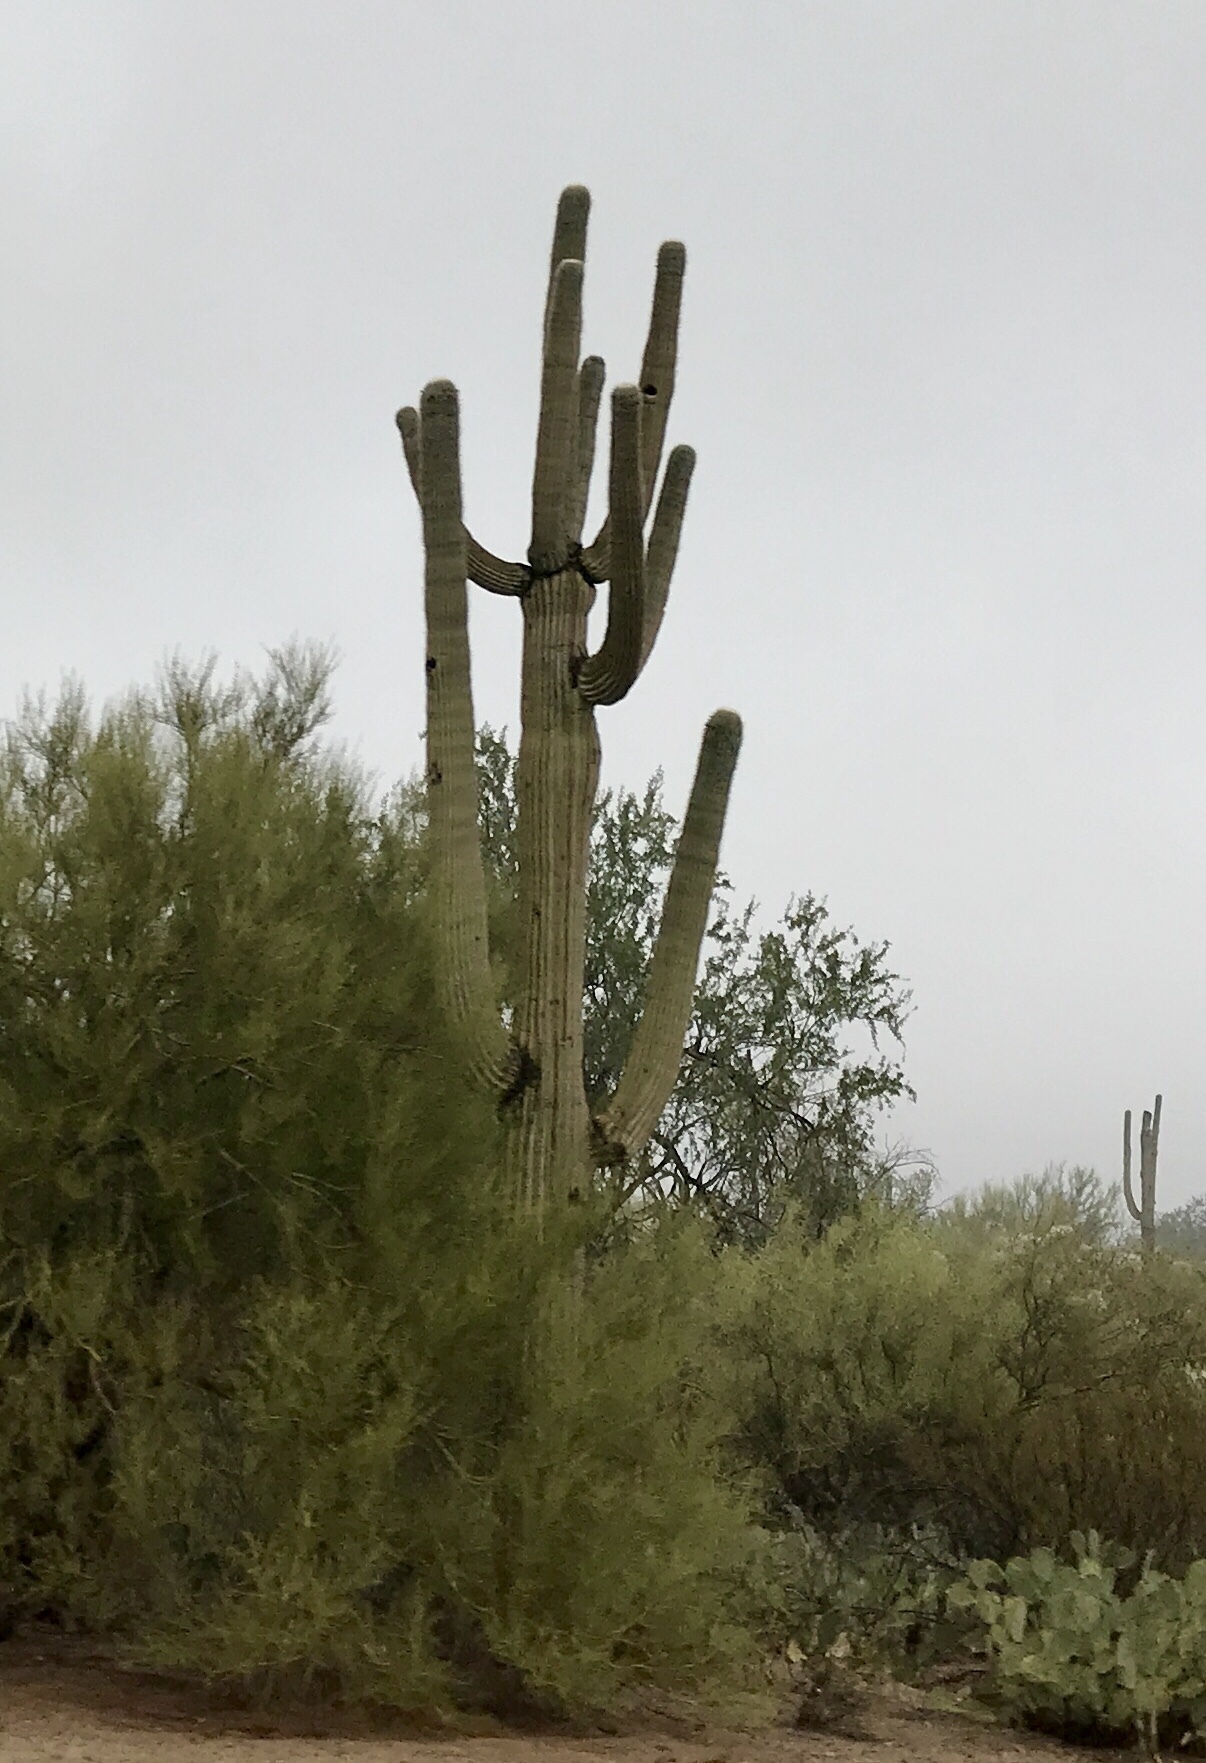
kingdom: Plantae
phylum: Tracheophyta
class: Magnoliopsida
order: Caryophyllales
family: Cactaceae
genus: Carnegiea
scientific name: Carnegiea gigantea
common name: Saguaro
